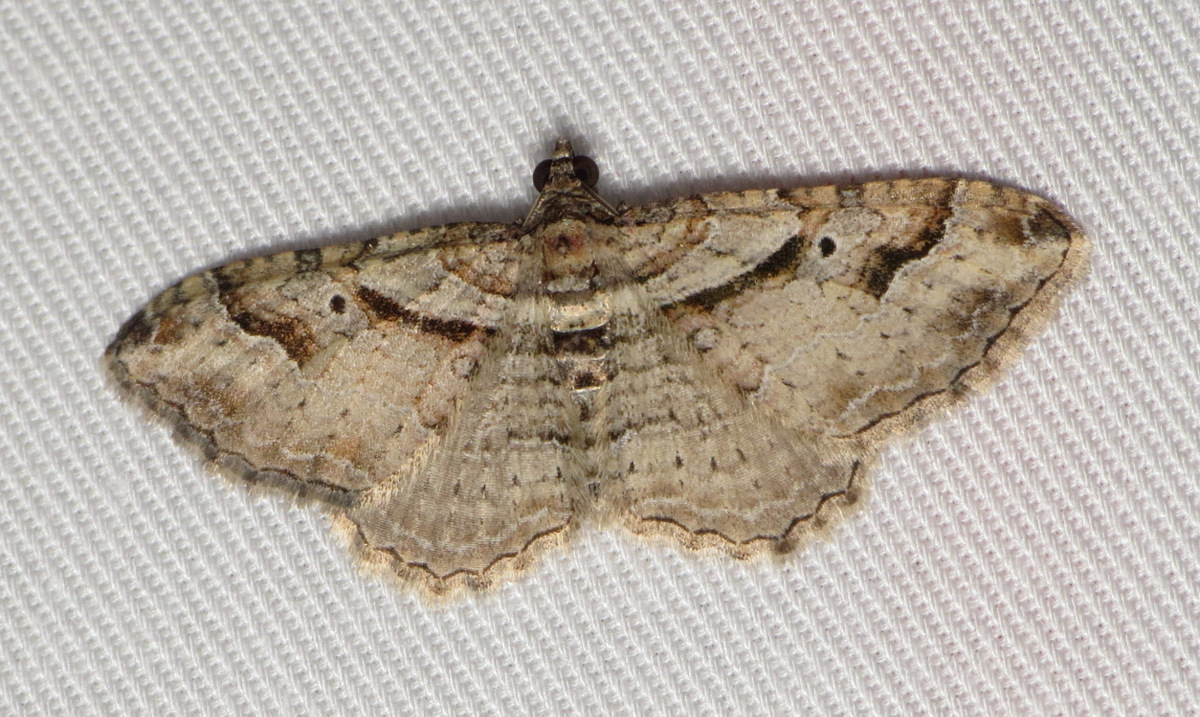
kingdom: Animalia
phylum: Arthropoda
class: Insecta
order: Lepidoptera
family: Geometridae
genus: Costaconvexa
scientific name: Costaconvexa centrostrigaria
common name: Bent-line carpet
